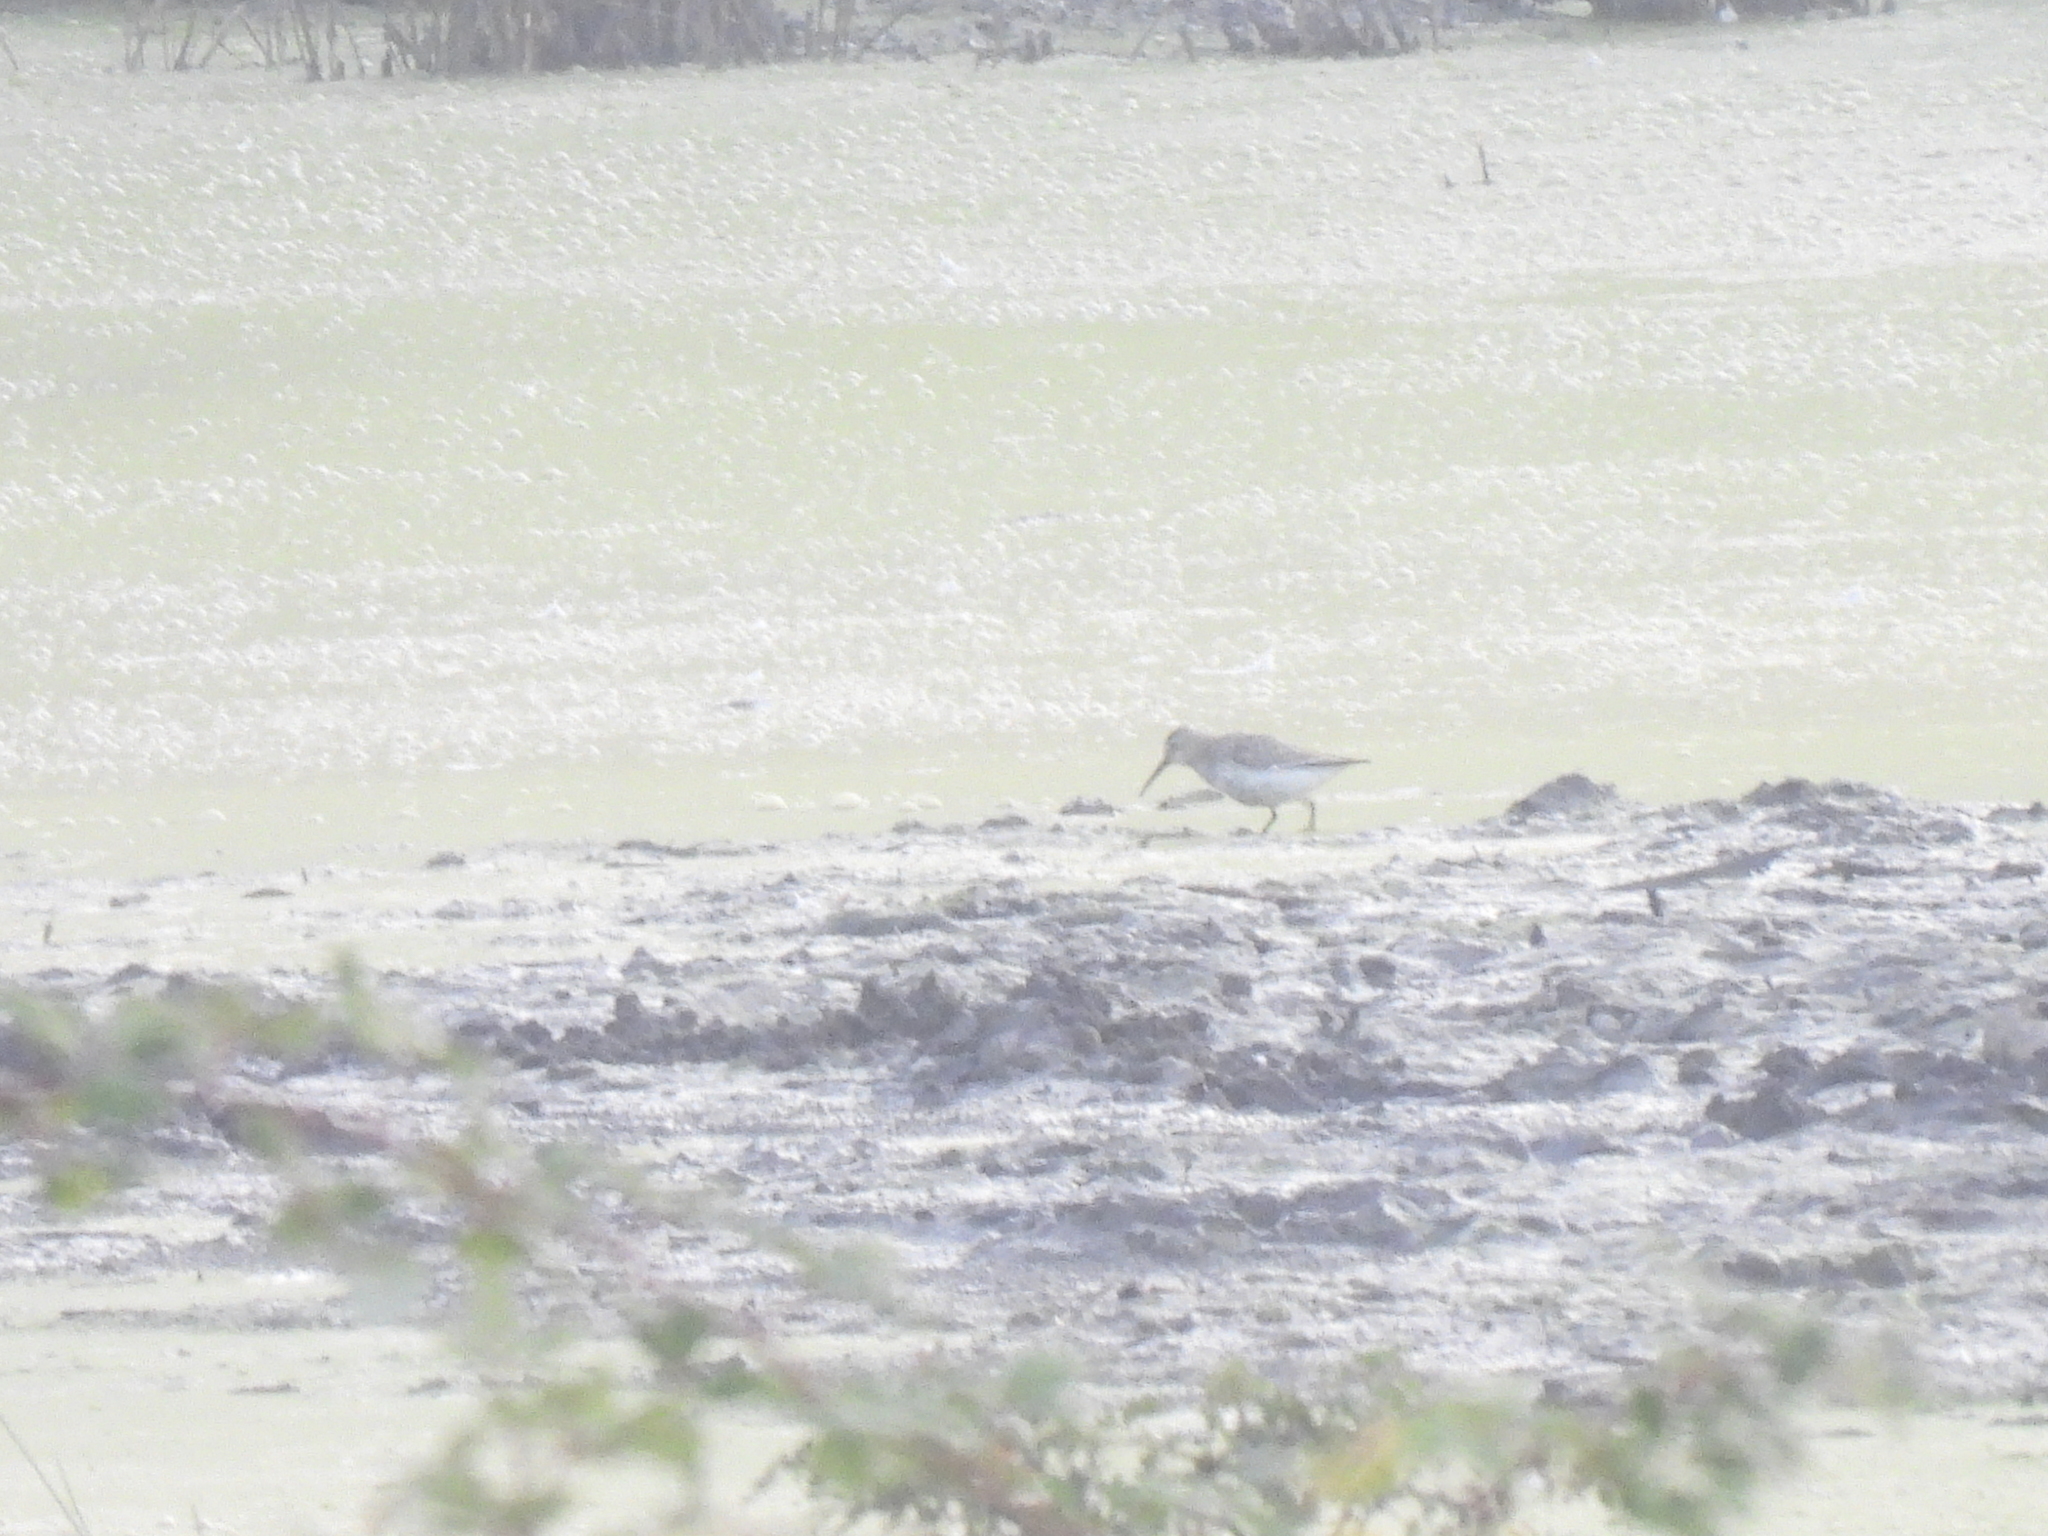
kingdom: Animalia
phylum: Chordata
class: Aves
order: Charadriiformes
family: Scolopacidae
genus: Calidris
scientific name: Calidris alpina
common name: Dunlin
